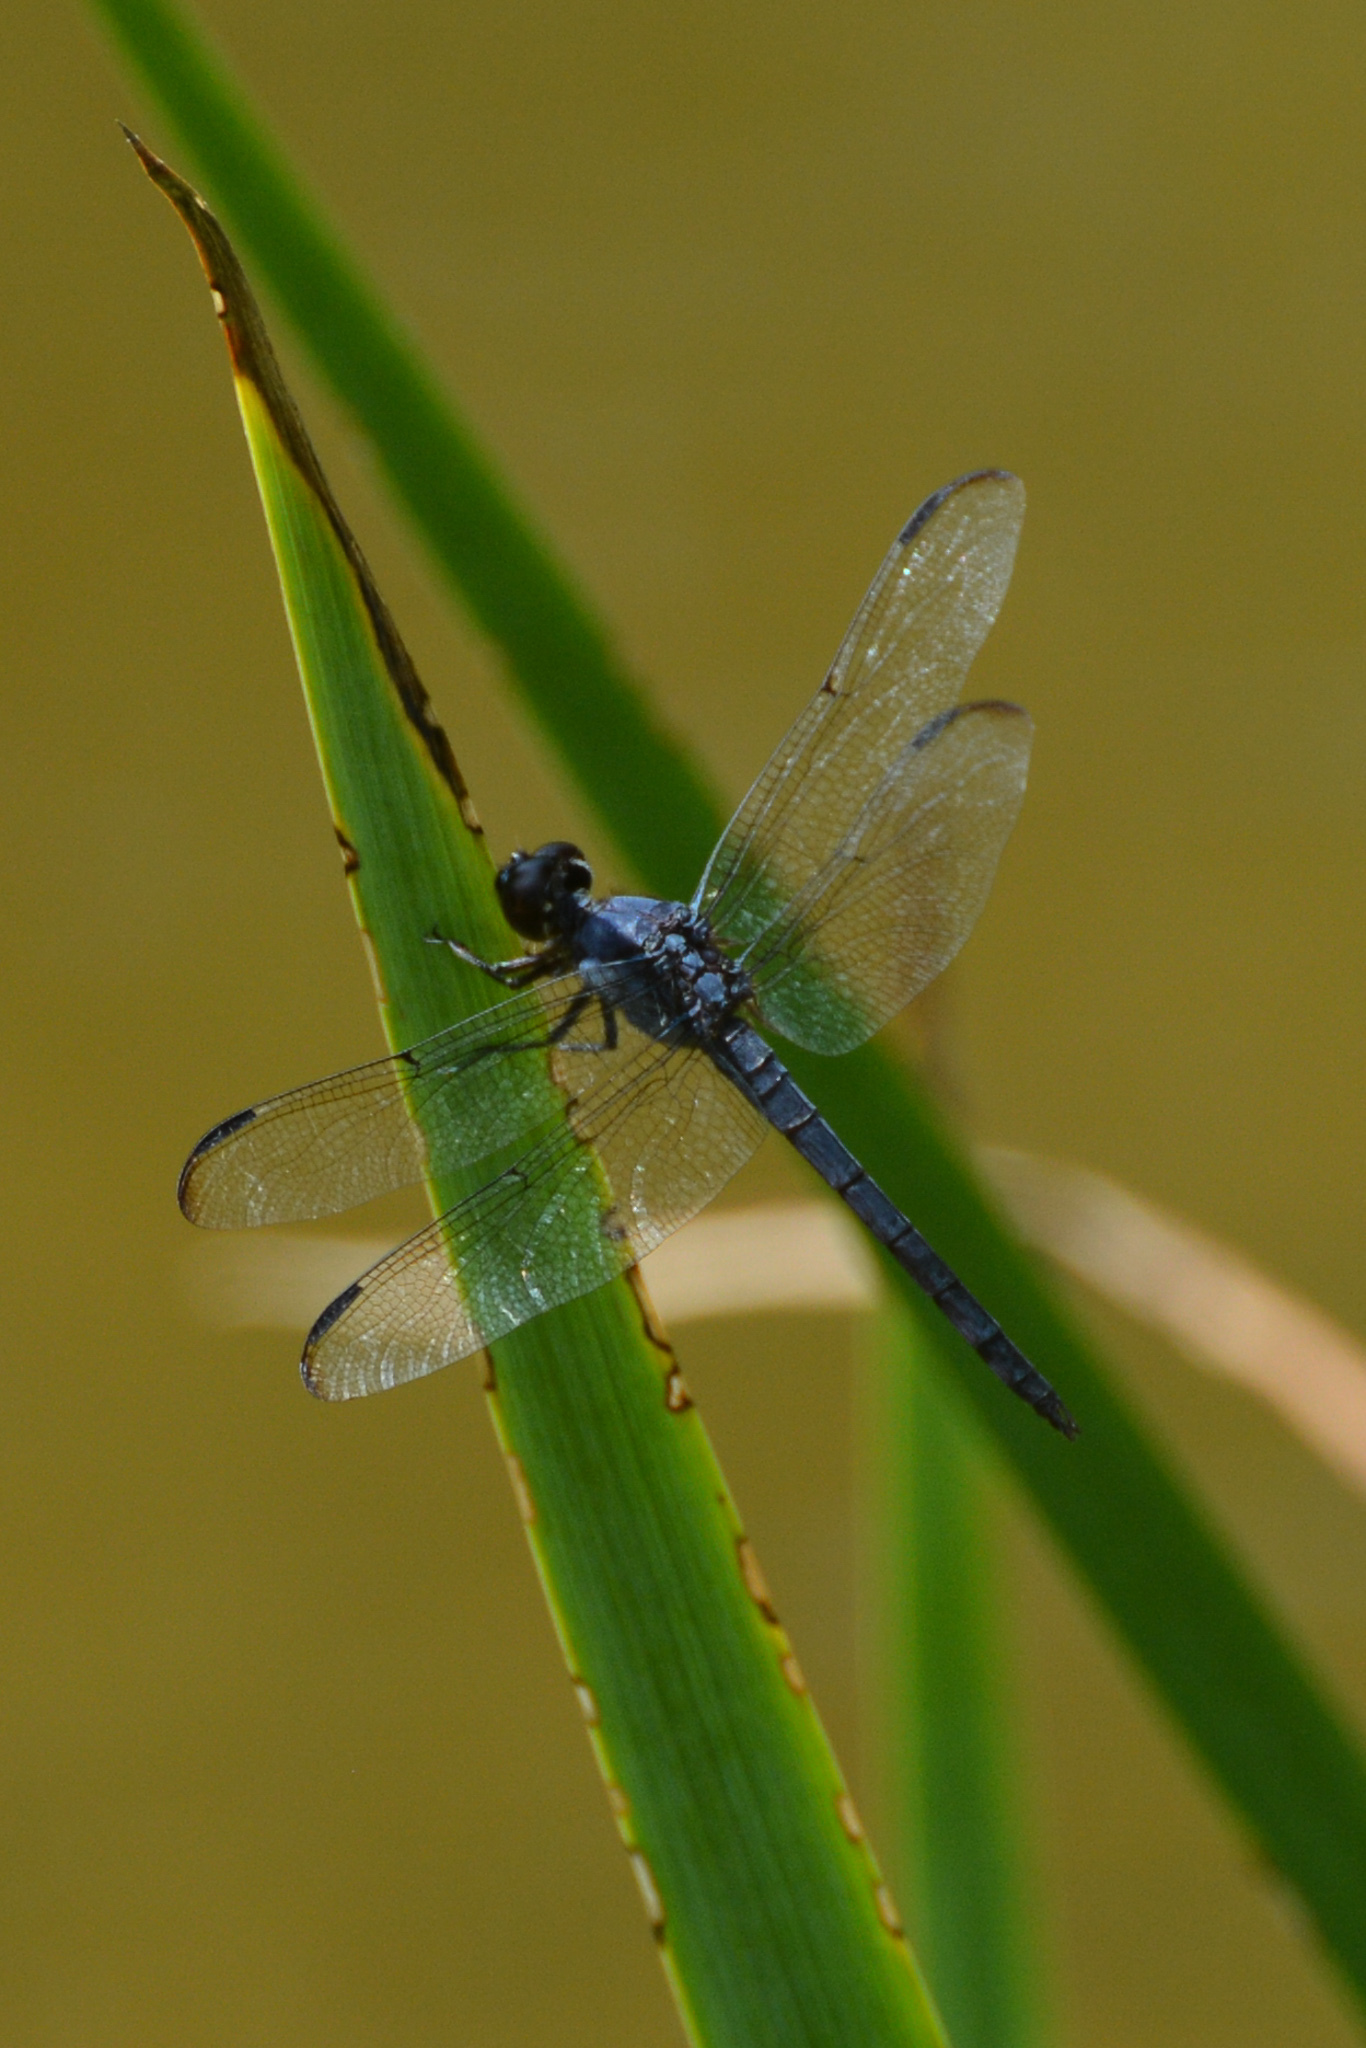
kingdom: Animalia
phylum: Arthropoda
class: Insecta
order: Odonata
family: Libellulidae
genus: Libellula
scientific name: Libellula incesta
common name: Slaty skimmer
